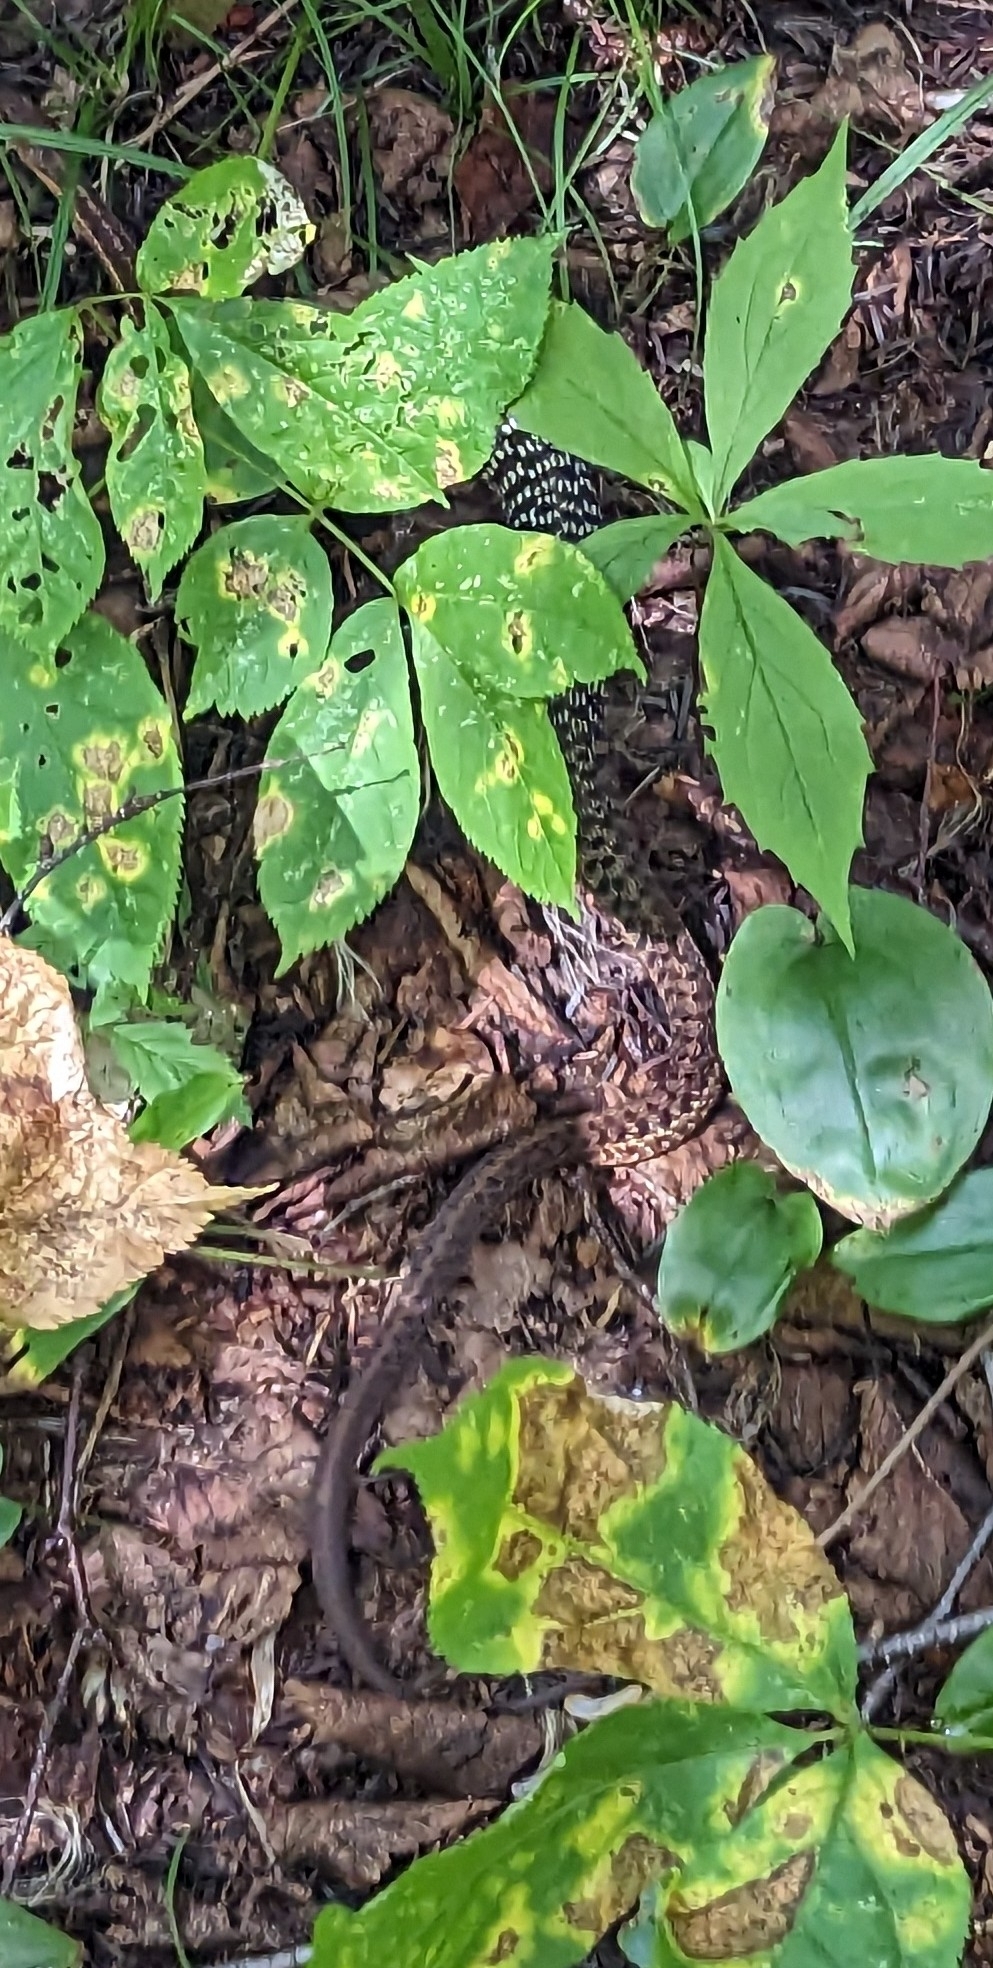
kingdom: Animalia
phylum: Chordata
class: Squamata
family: Colubridae
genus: Thamnophis
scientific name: Thamnophis sirtalis
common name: Common garter snake
